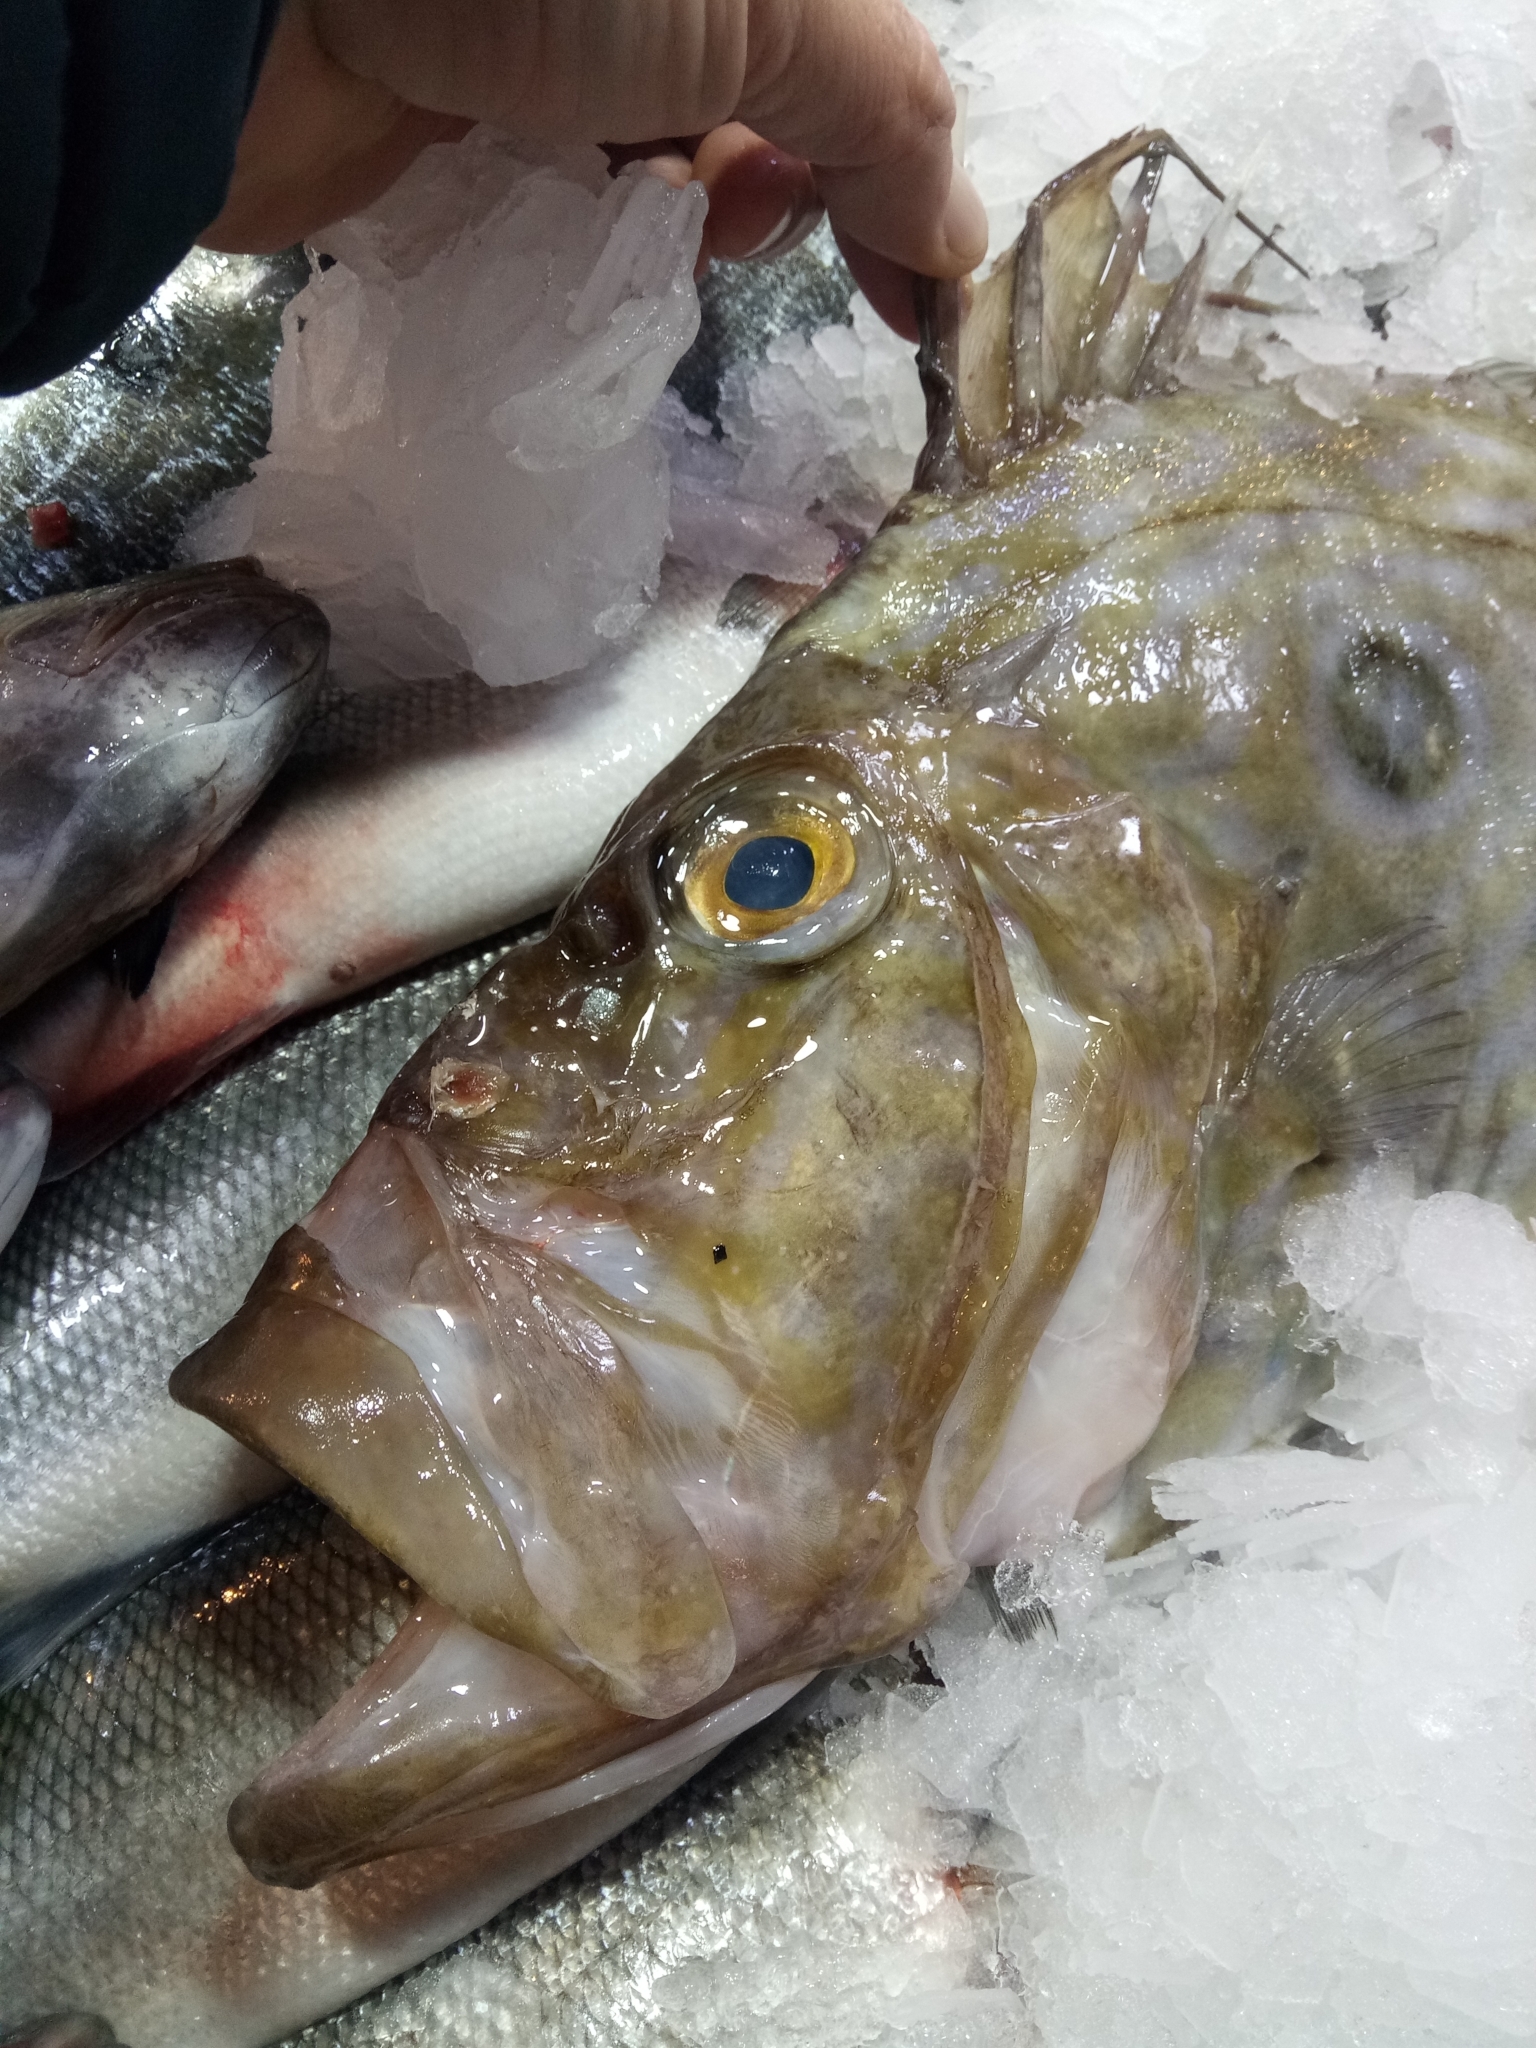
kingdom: Animalia
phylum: Chordata
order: Zeiformes
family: Zeidae
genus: Zeus
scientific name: Zeus faber
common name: John dory
